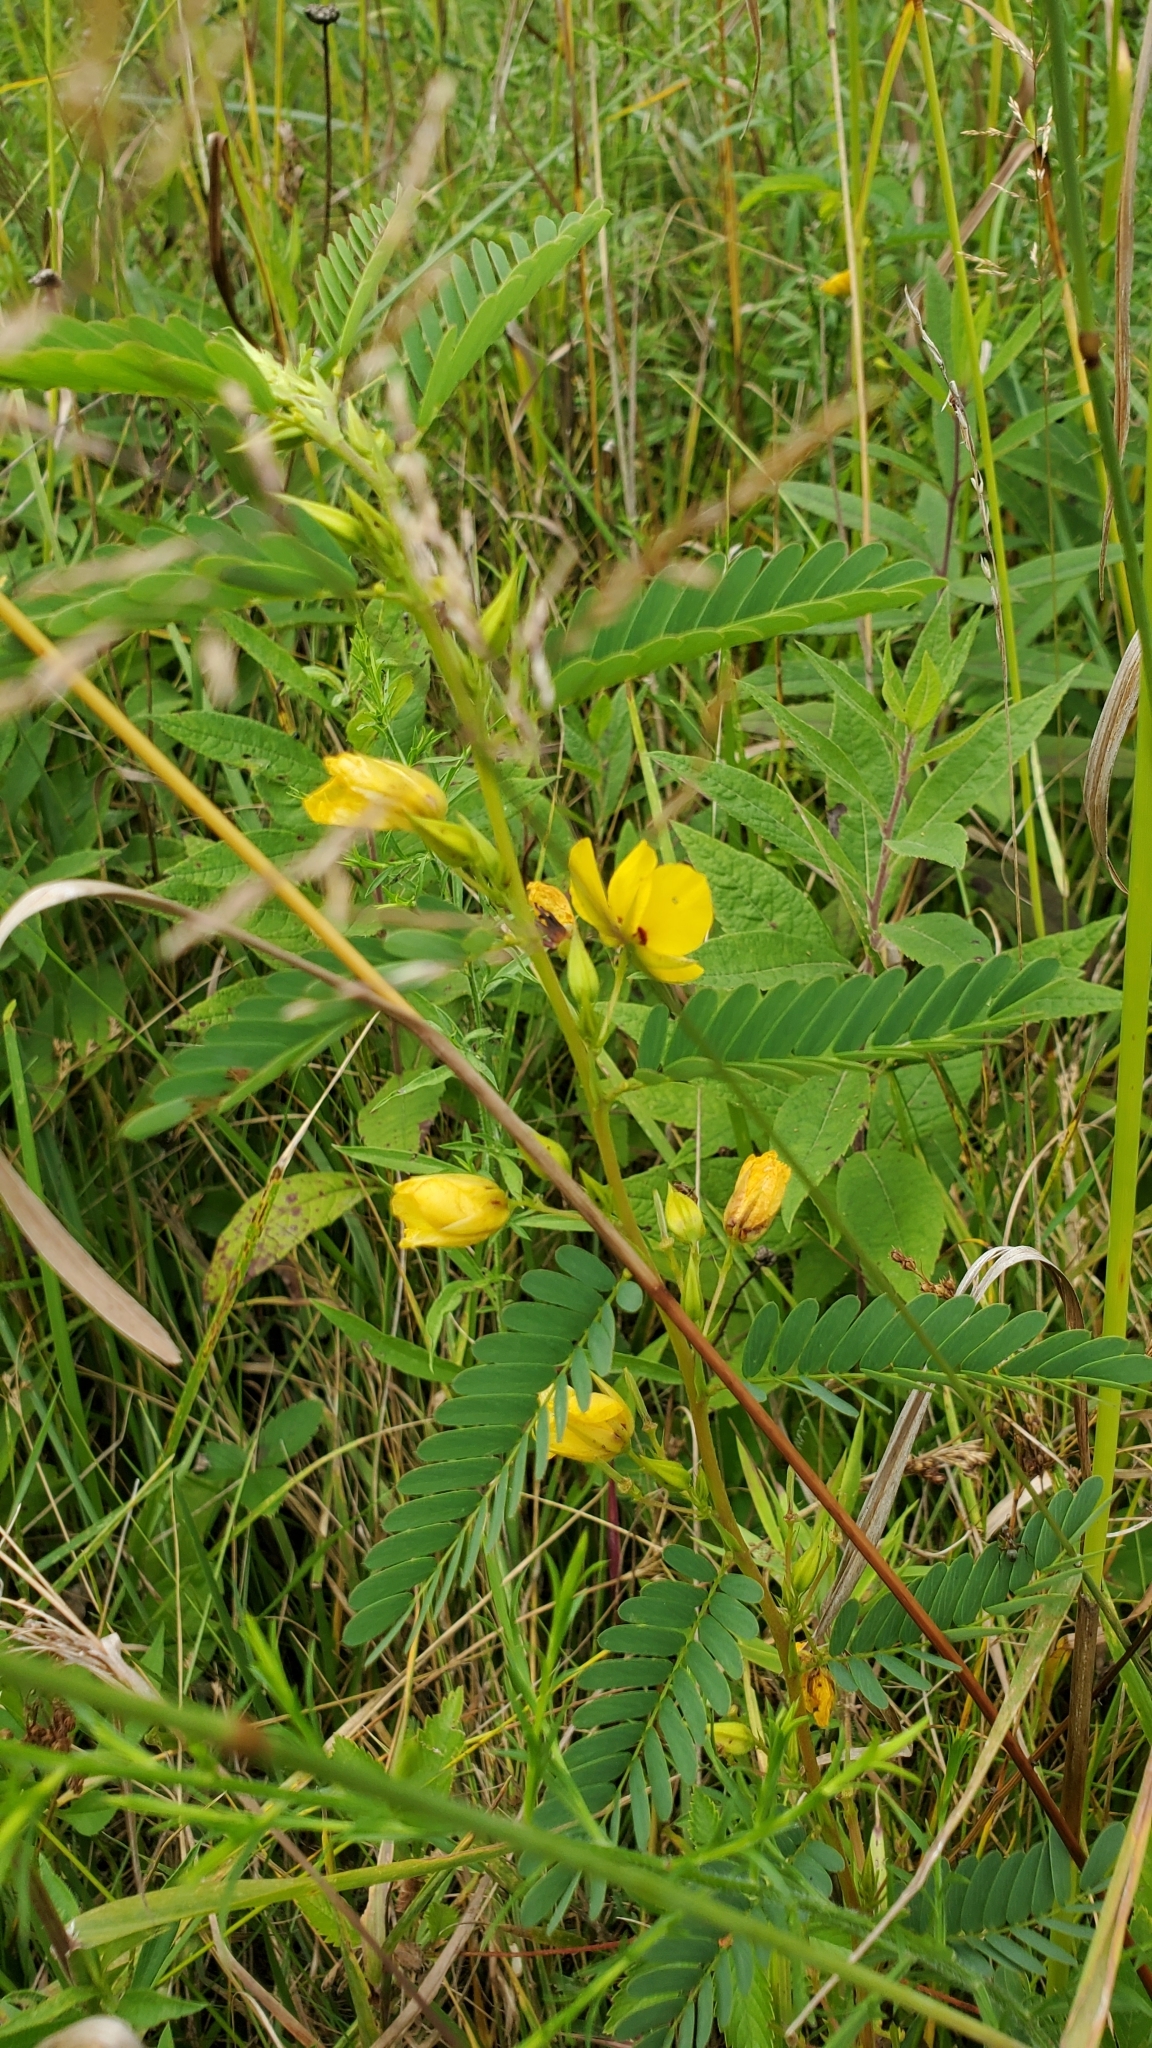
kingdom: Plantae
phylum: Tracheophyta
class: Magnoliopsida
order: Fabales
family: Fabaceae
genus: Chamaecrista
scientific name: Chamaecrista fasciculata
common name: Golden cassia
